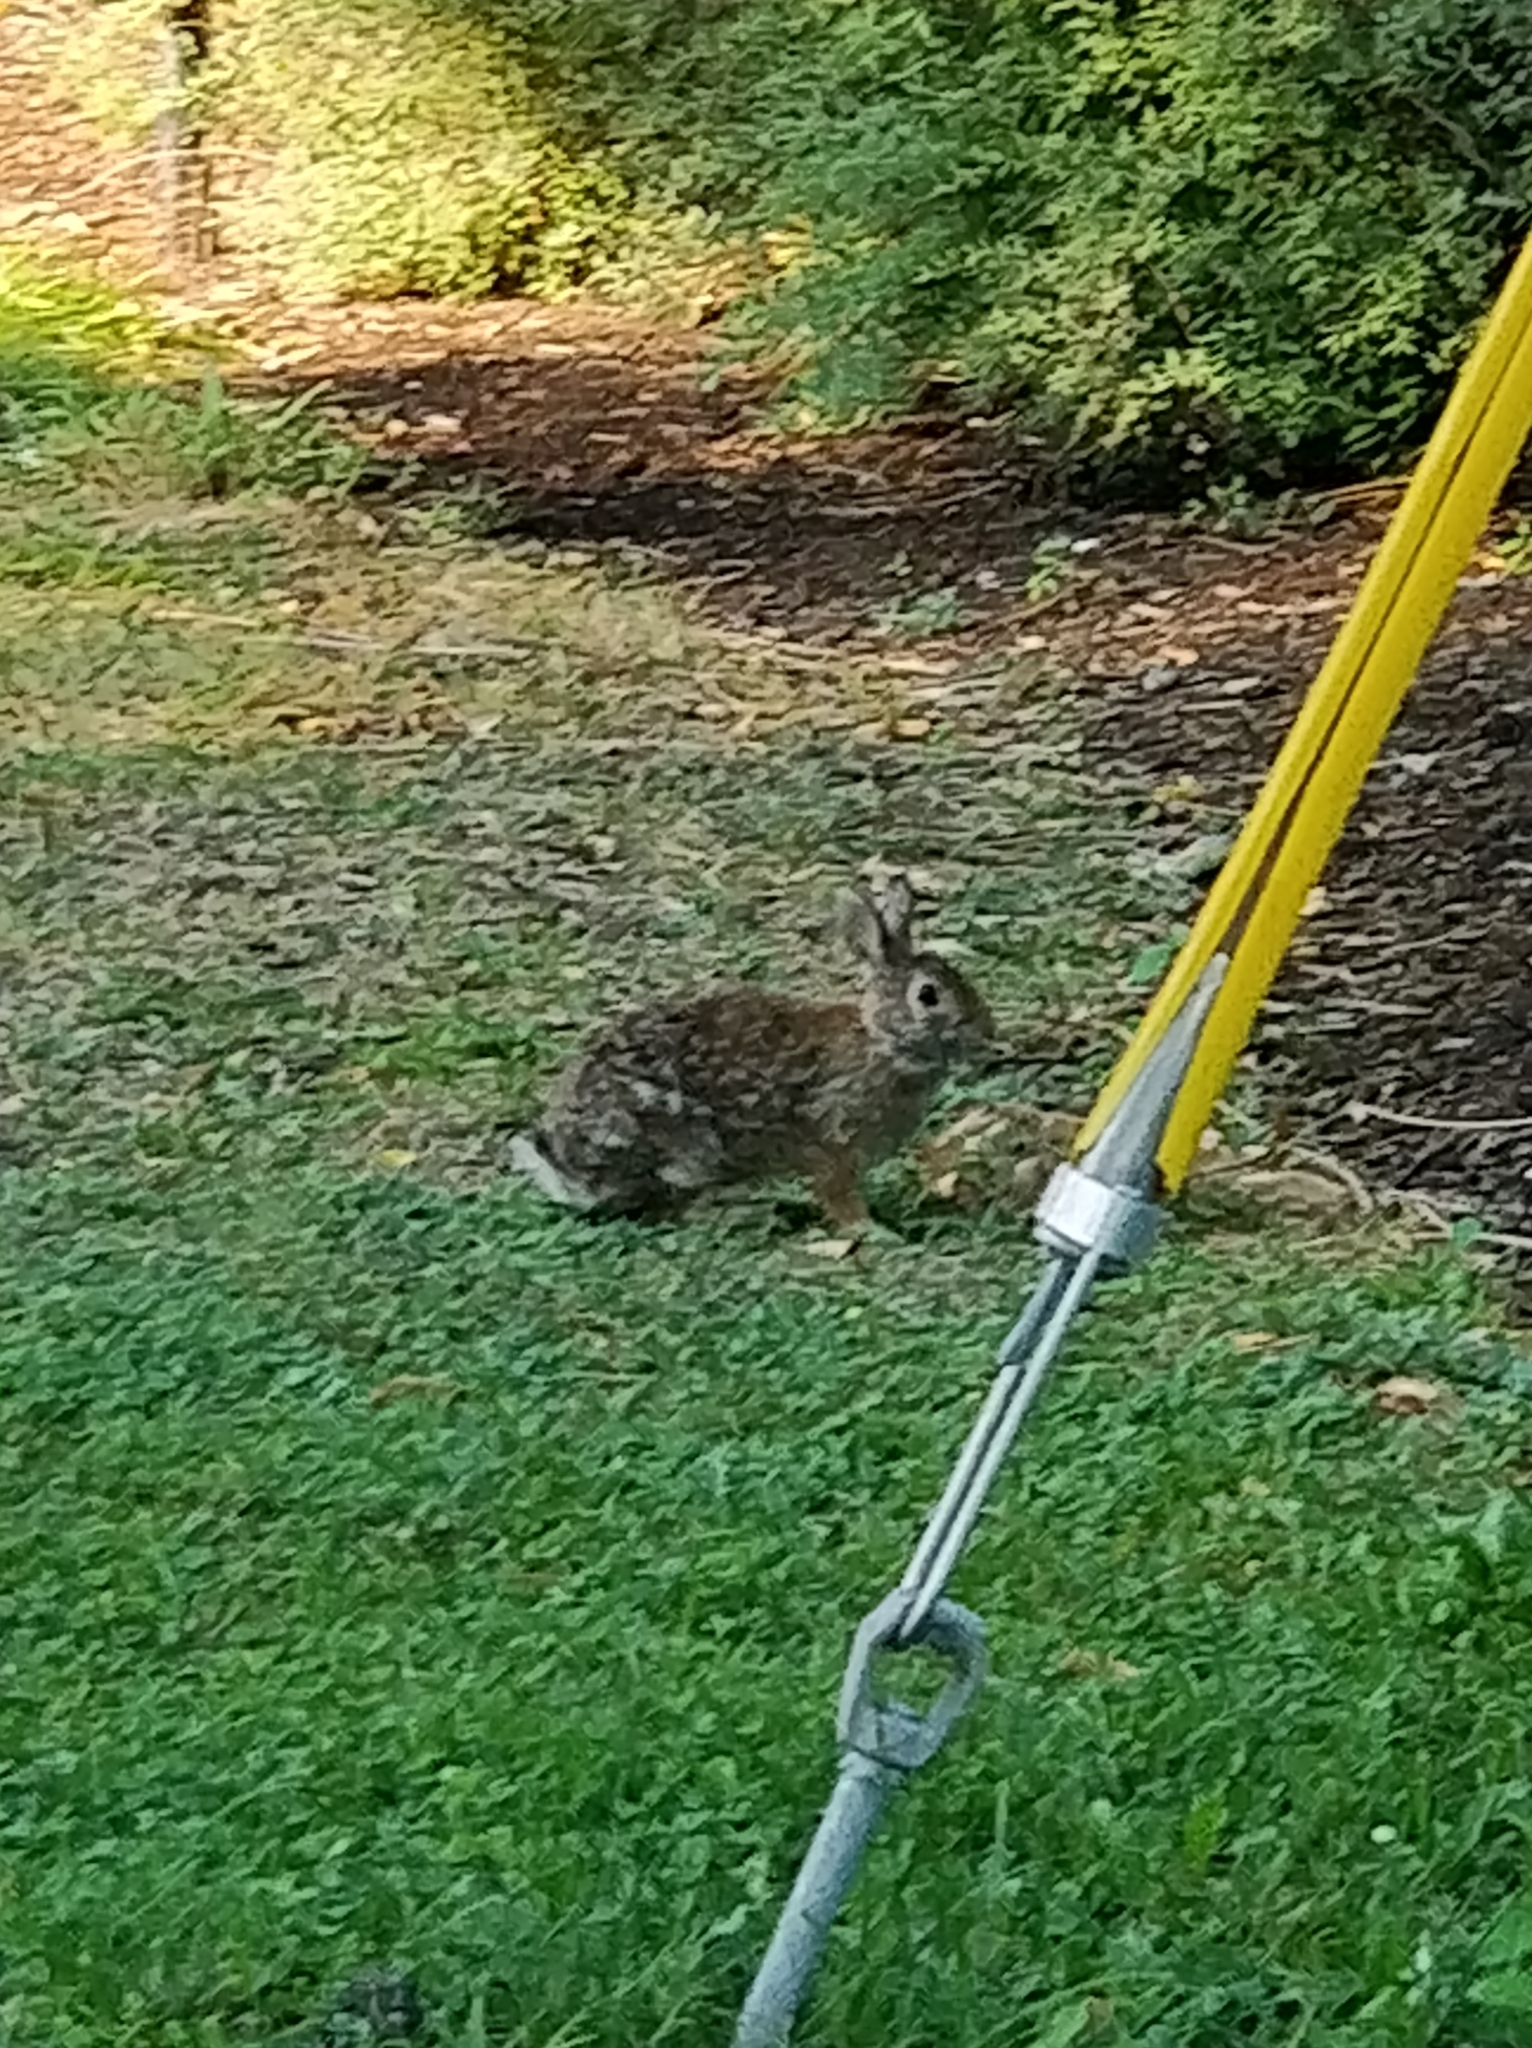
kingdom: Animalia
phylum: Chordata
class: Mammalia
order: Lagomorpha
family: Leporidae
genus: Sylvilagus
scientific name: Sylvilagus floridanus
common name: Eastern cottontail
